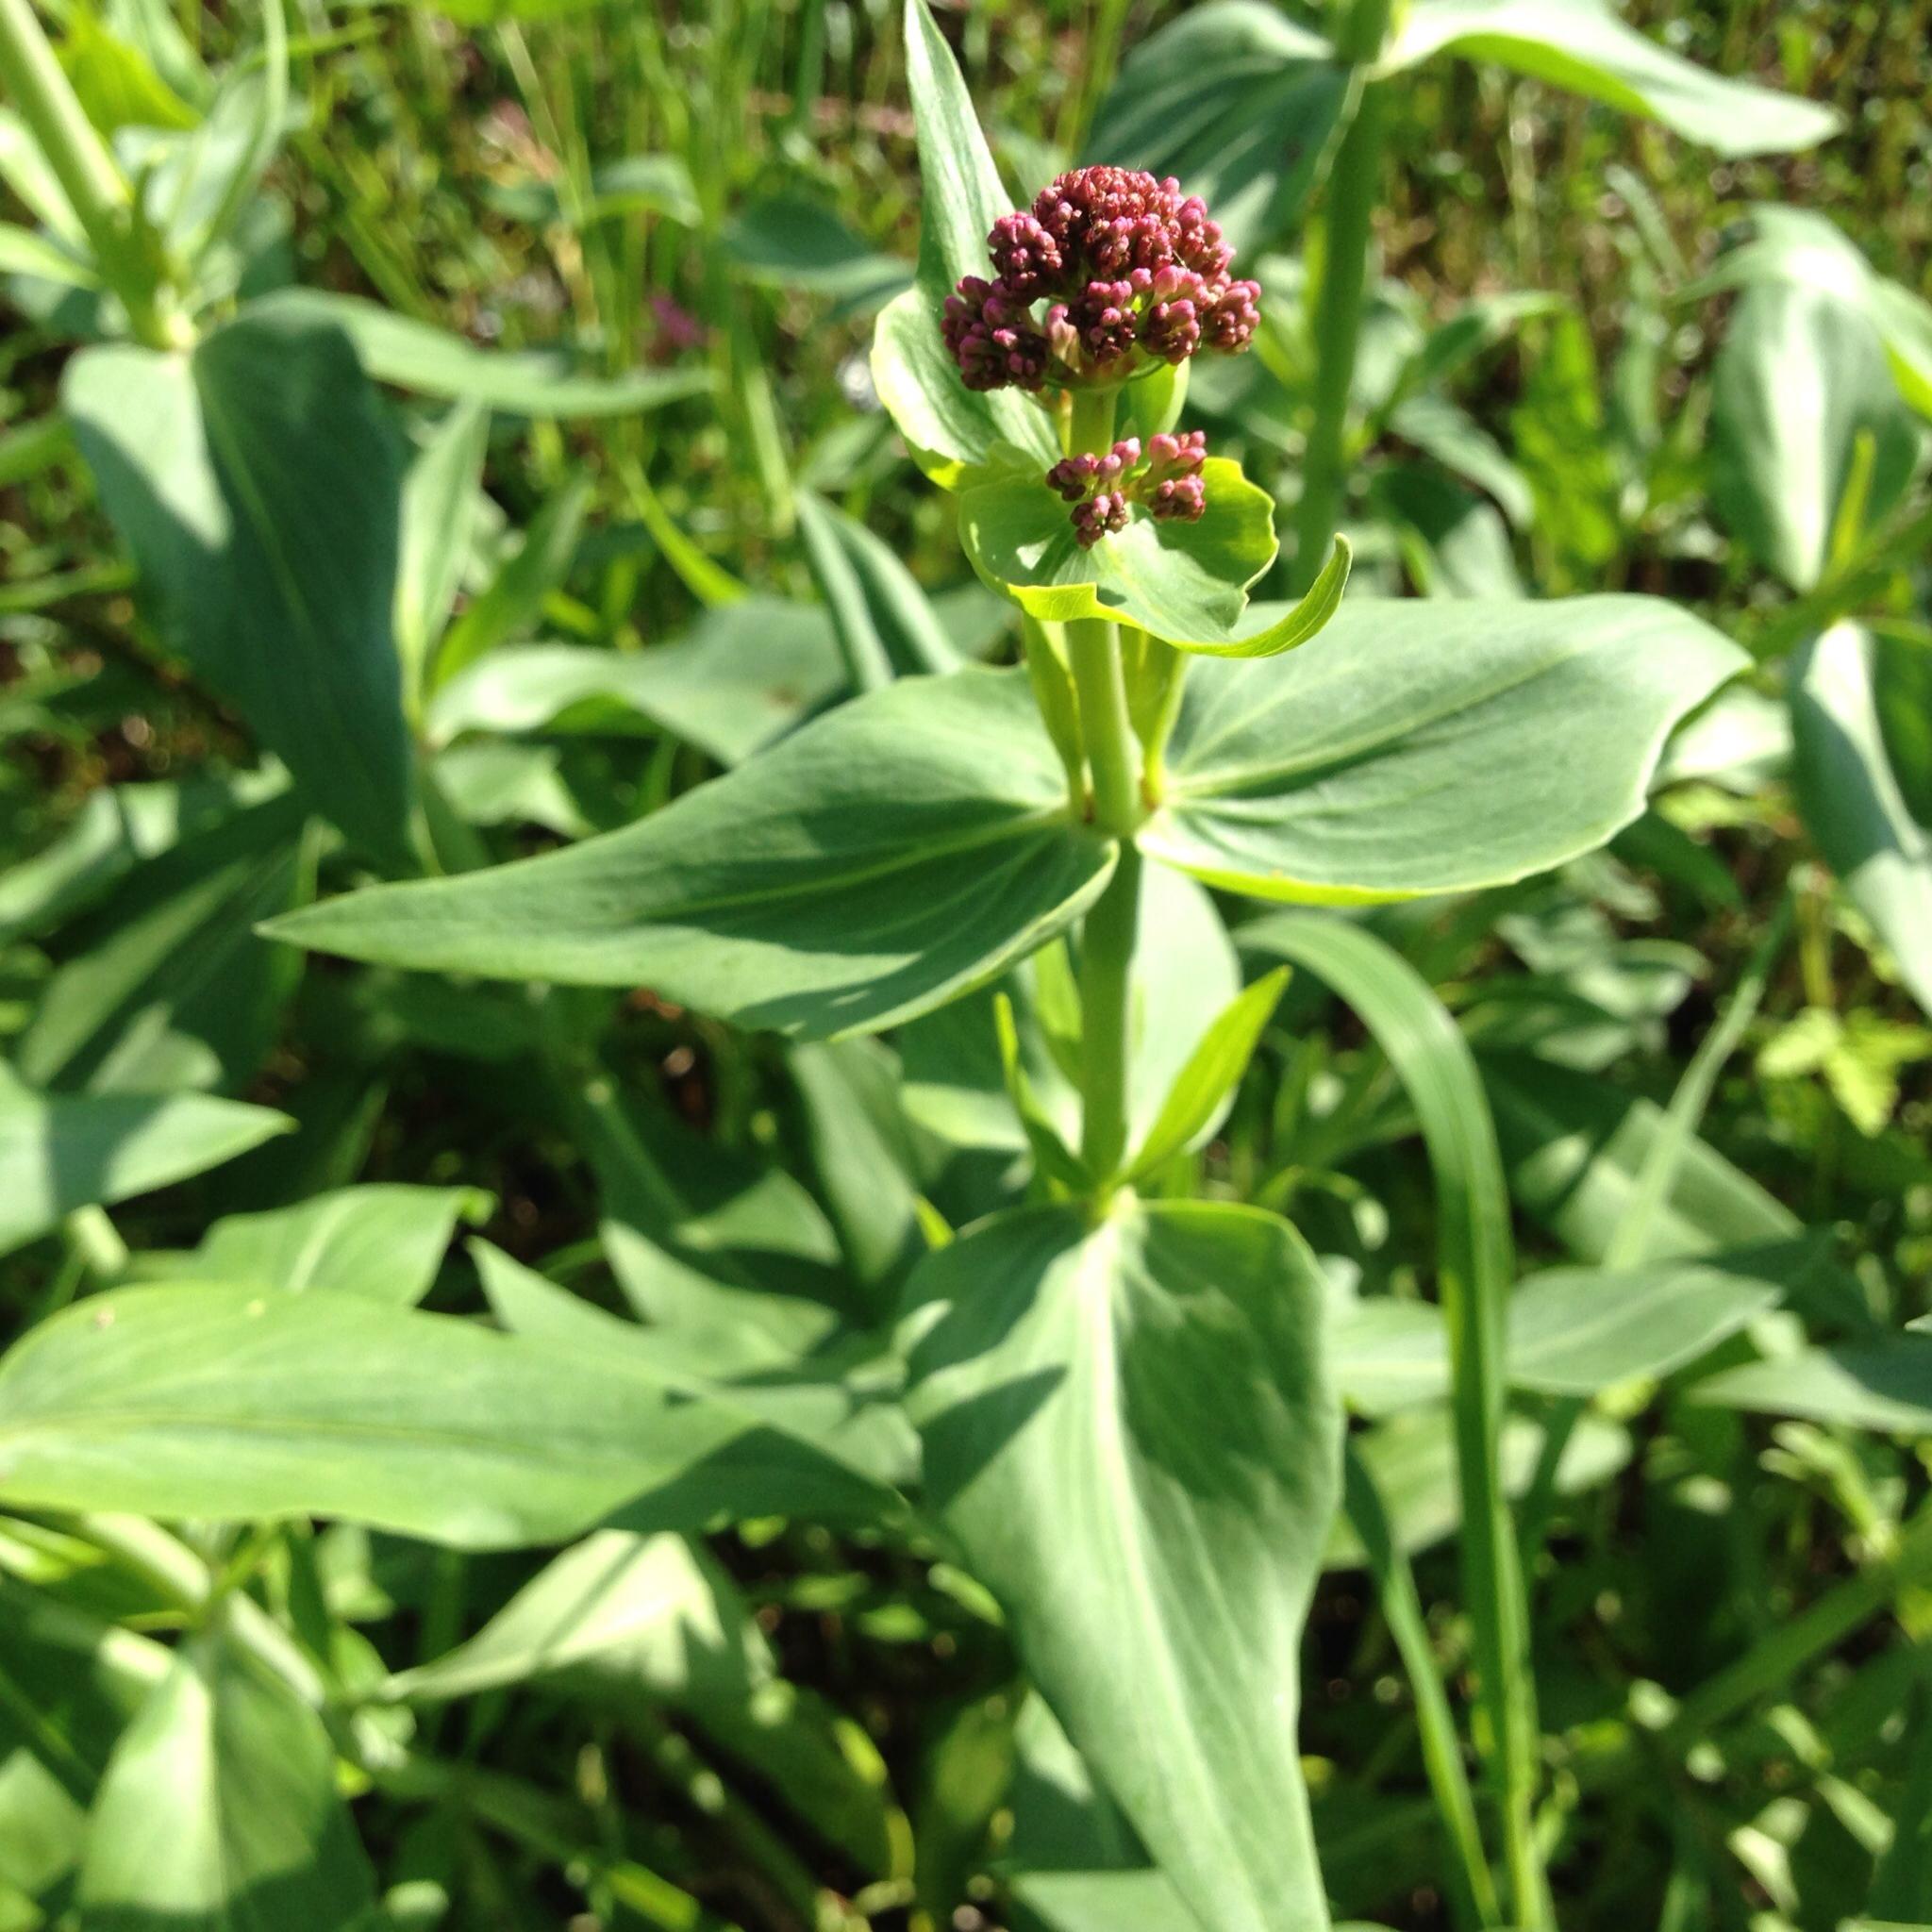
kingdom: Plantae
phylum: Tracheophyta
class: Magnoliopsida
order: Dipsacales
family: Caprifoliaceae
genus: Centranthus
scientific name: Centranthus ruber
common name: Red valerian
